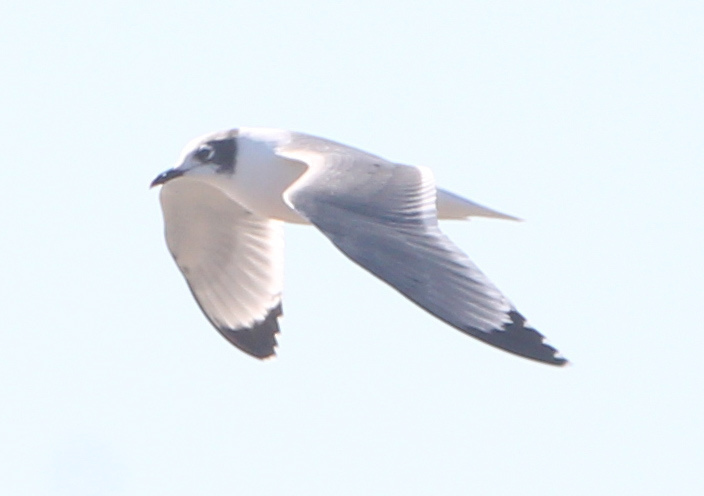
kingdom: Animalia
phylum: Chordata
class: Aves
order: Charadriiformes
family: Laridae
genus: Leucophaeus
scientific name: Leucophaeus pipixcan
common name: Franklin's gull
